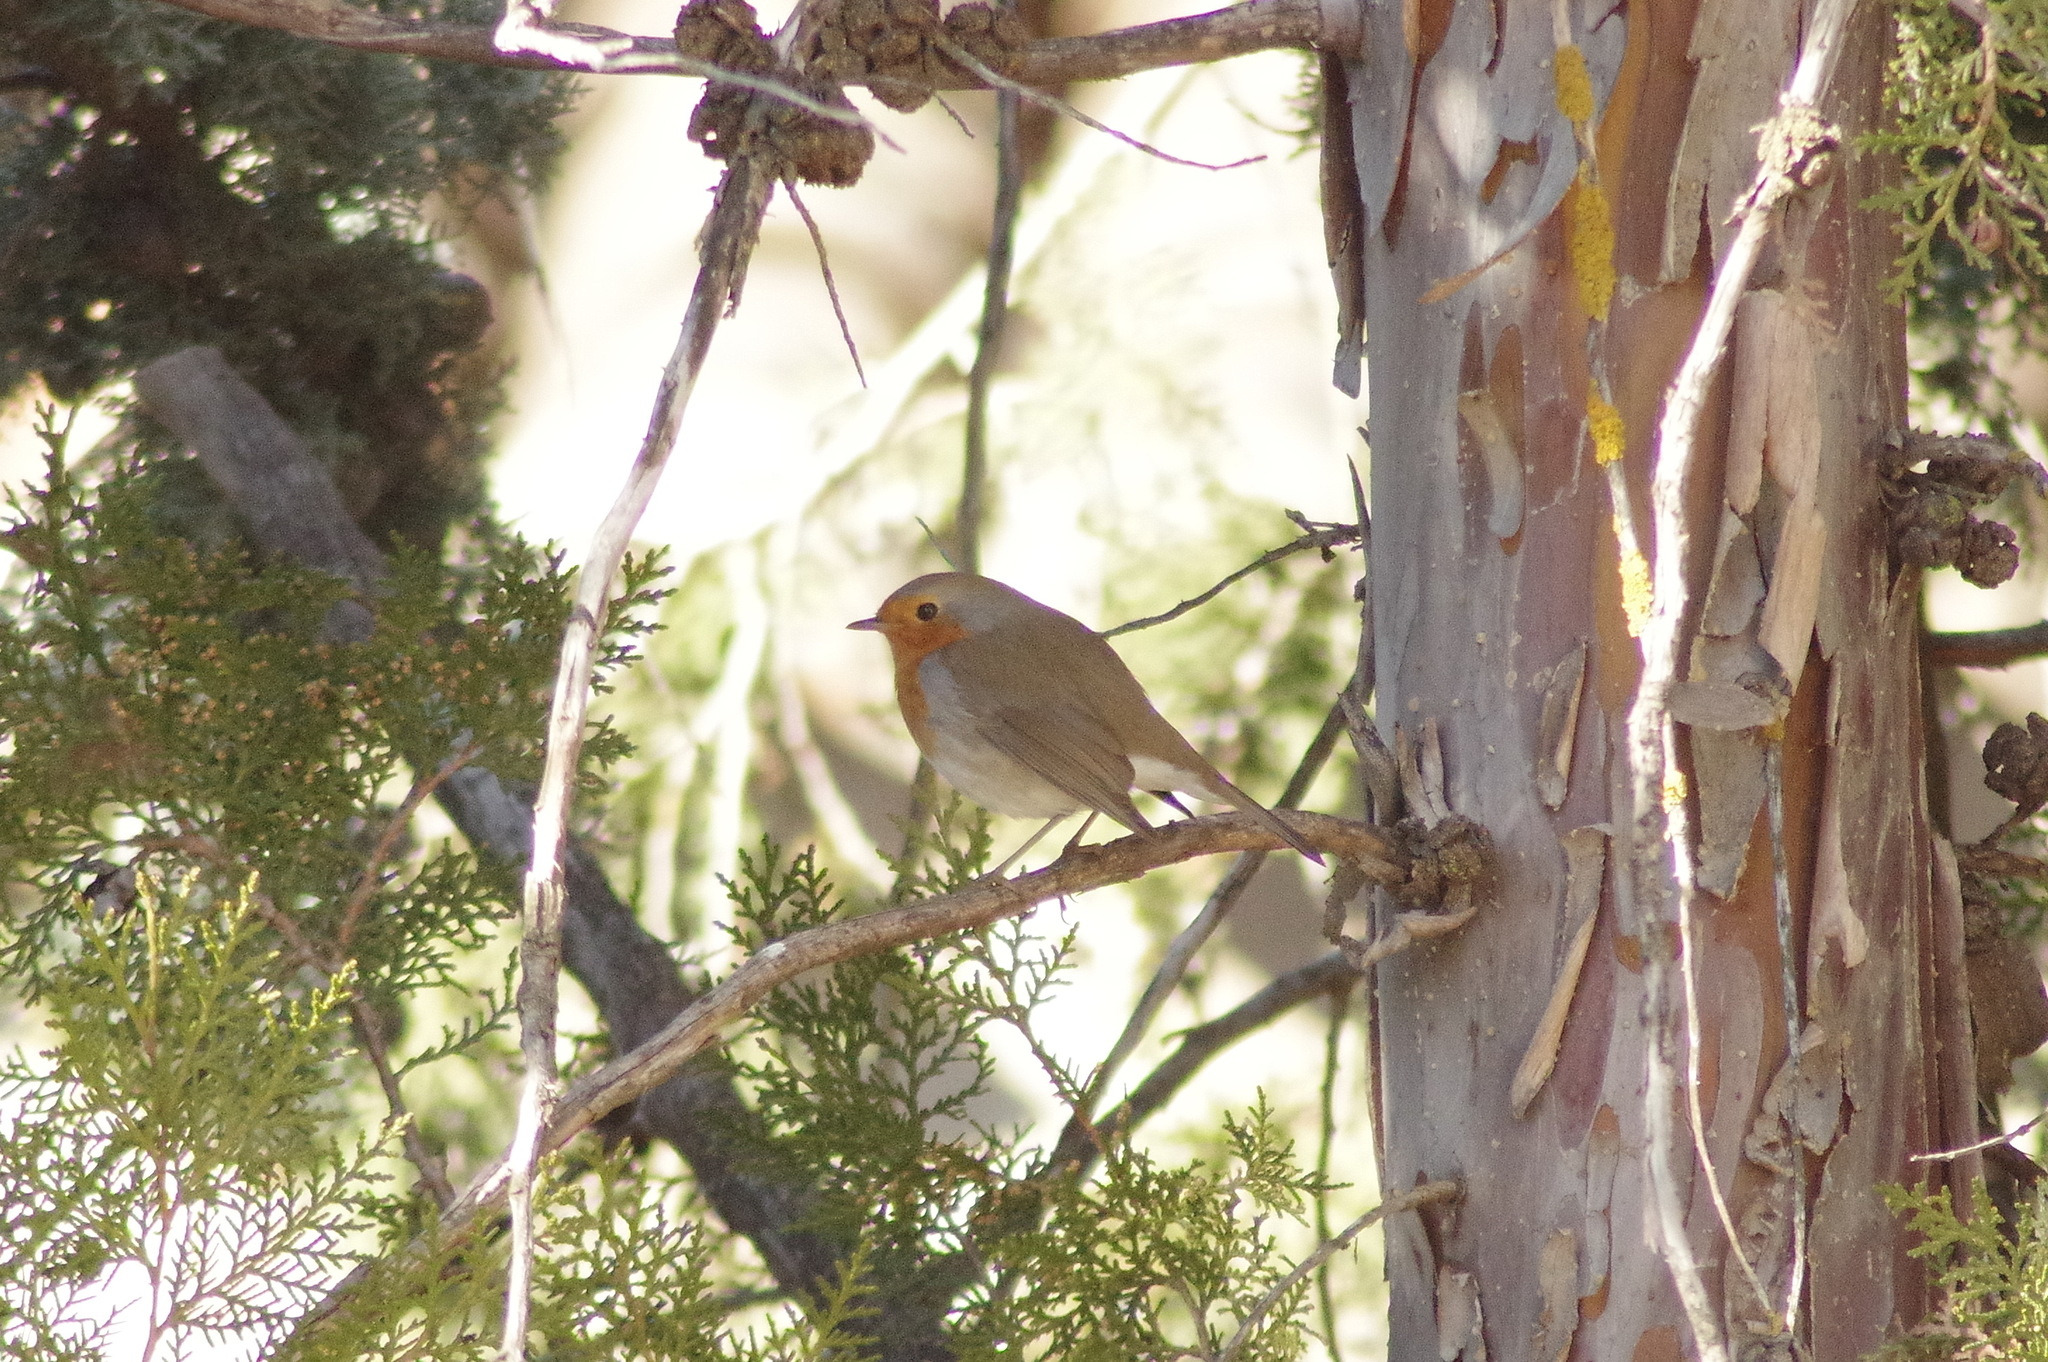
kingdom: Animalia
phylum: Chordata
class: Aves
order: Passeriformes
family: Muscicapidae
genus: Erithacus
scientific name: Erithacus rubecula
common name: European robin
